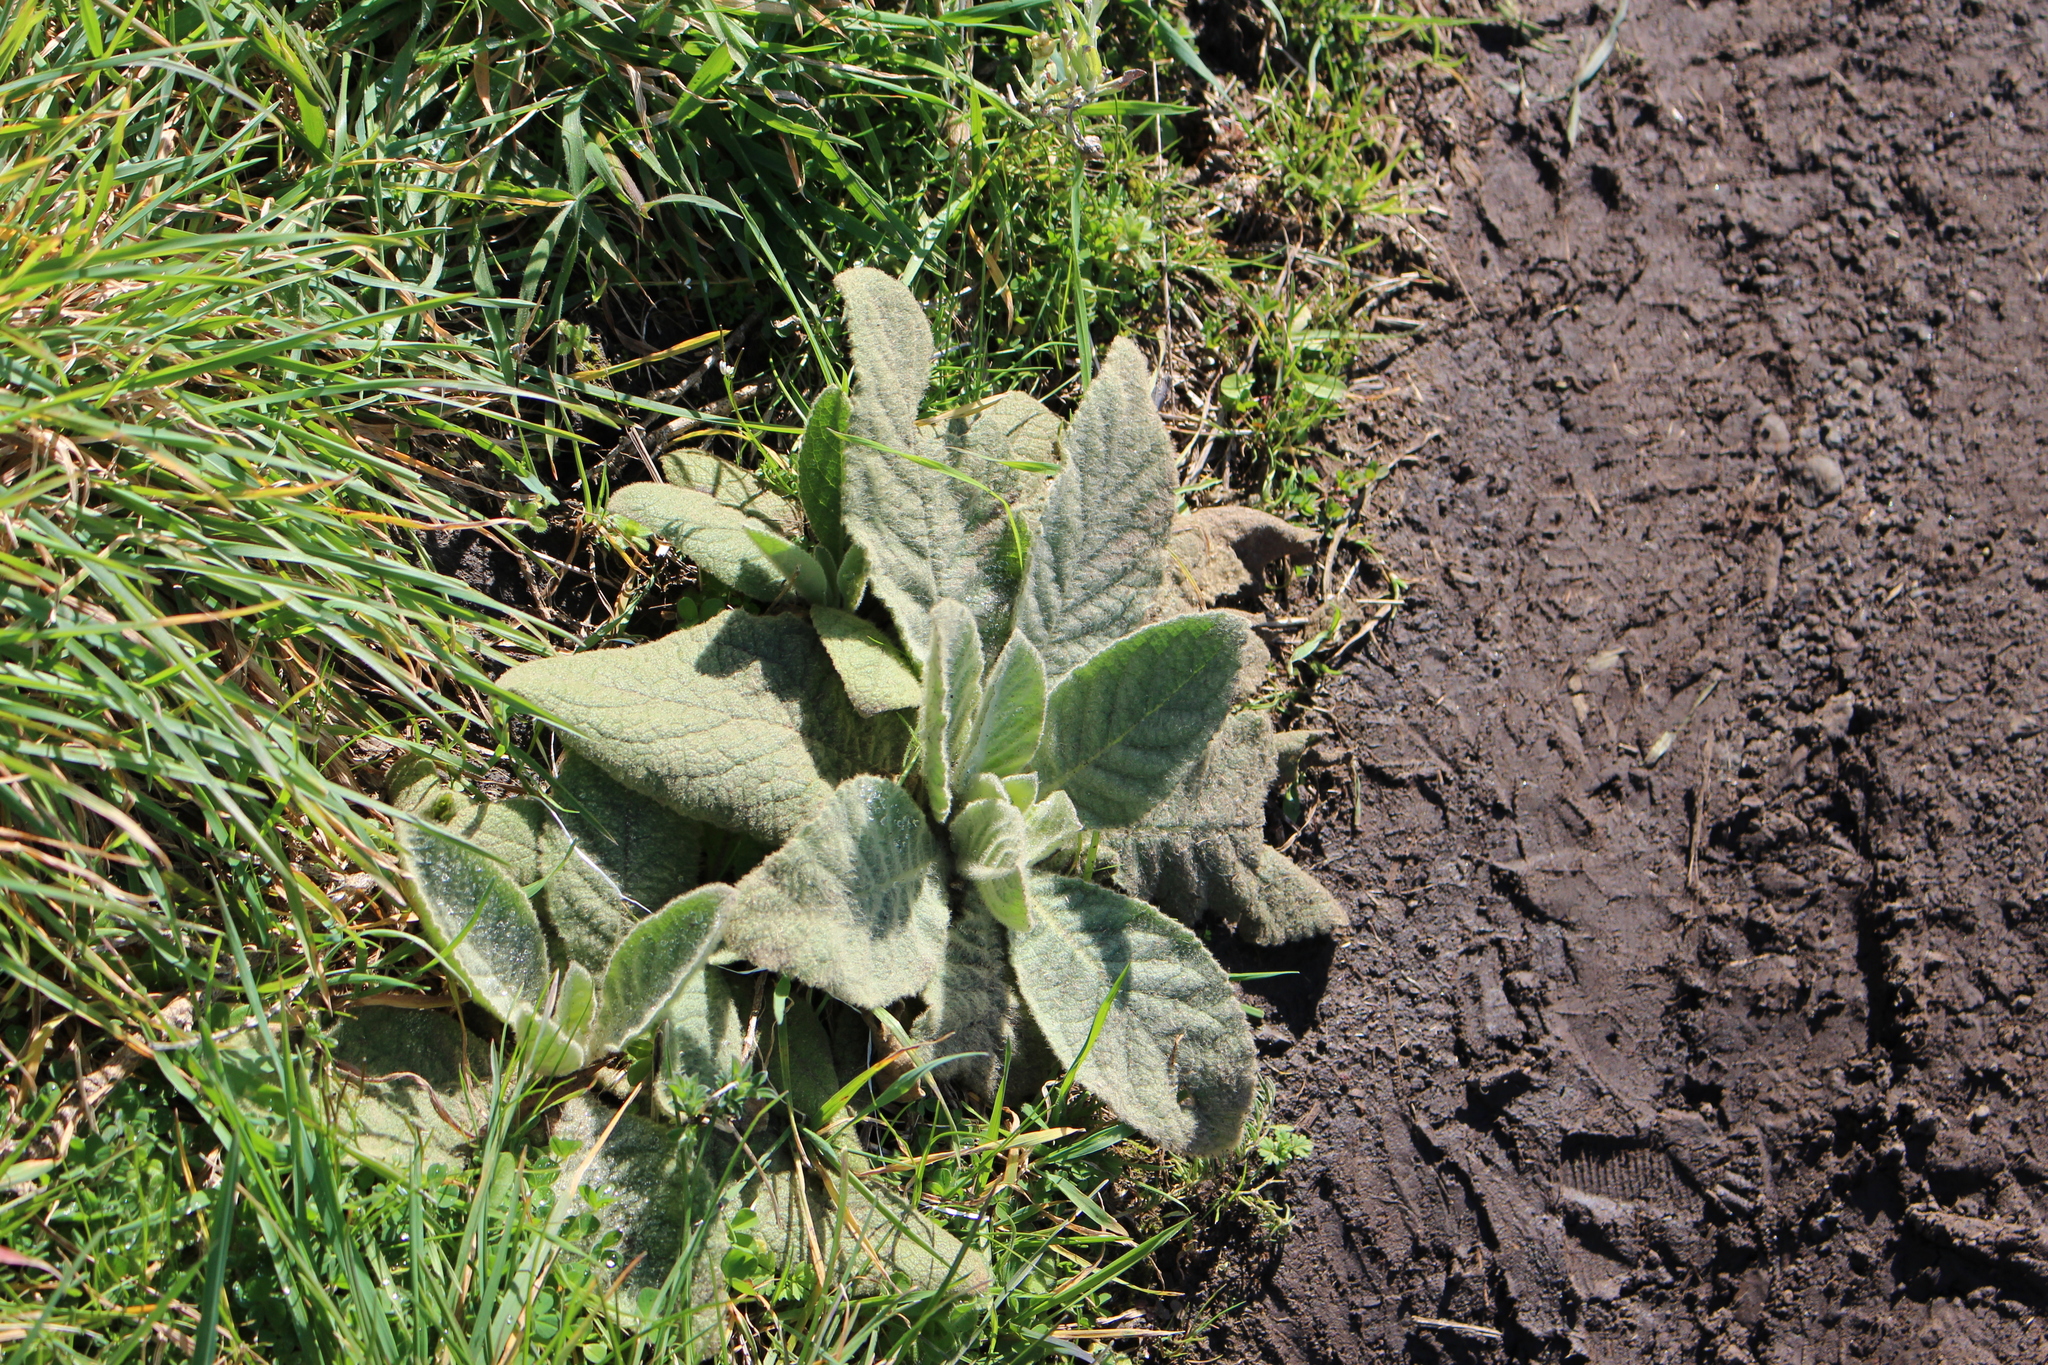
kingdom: Plantae
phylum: Tracheophyta
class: Magnoliopsida
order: Lamiales
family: Scrophulariaceae
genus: Verbascum
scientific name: Verbascum thapsus
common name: Common mullein
